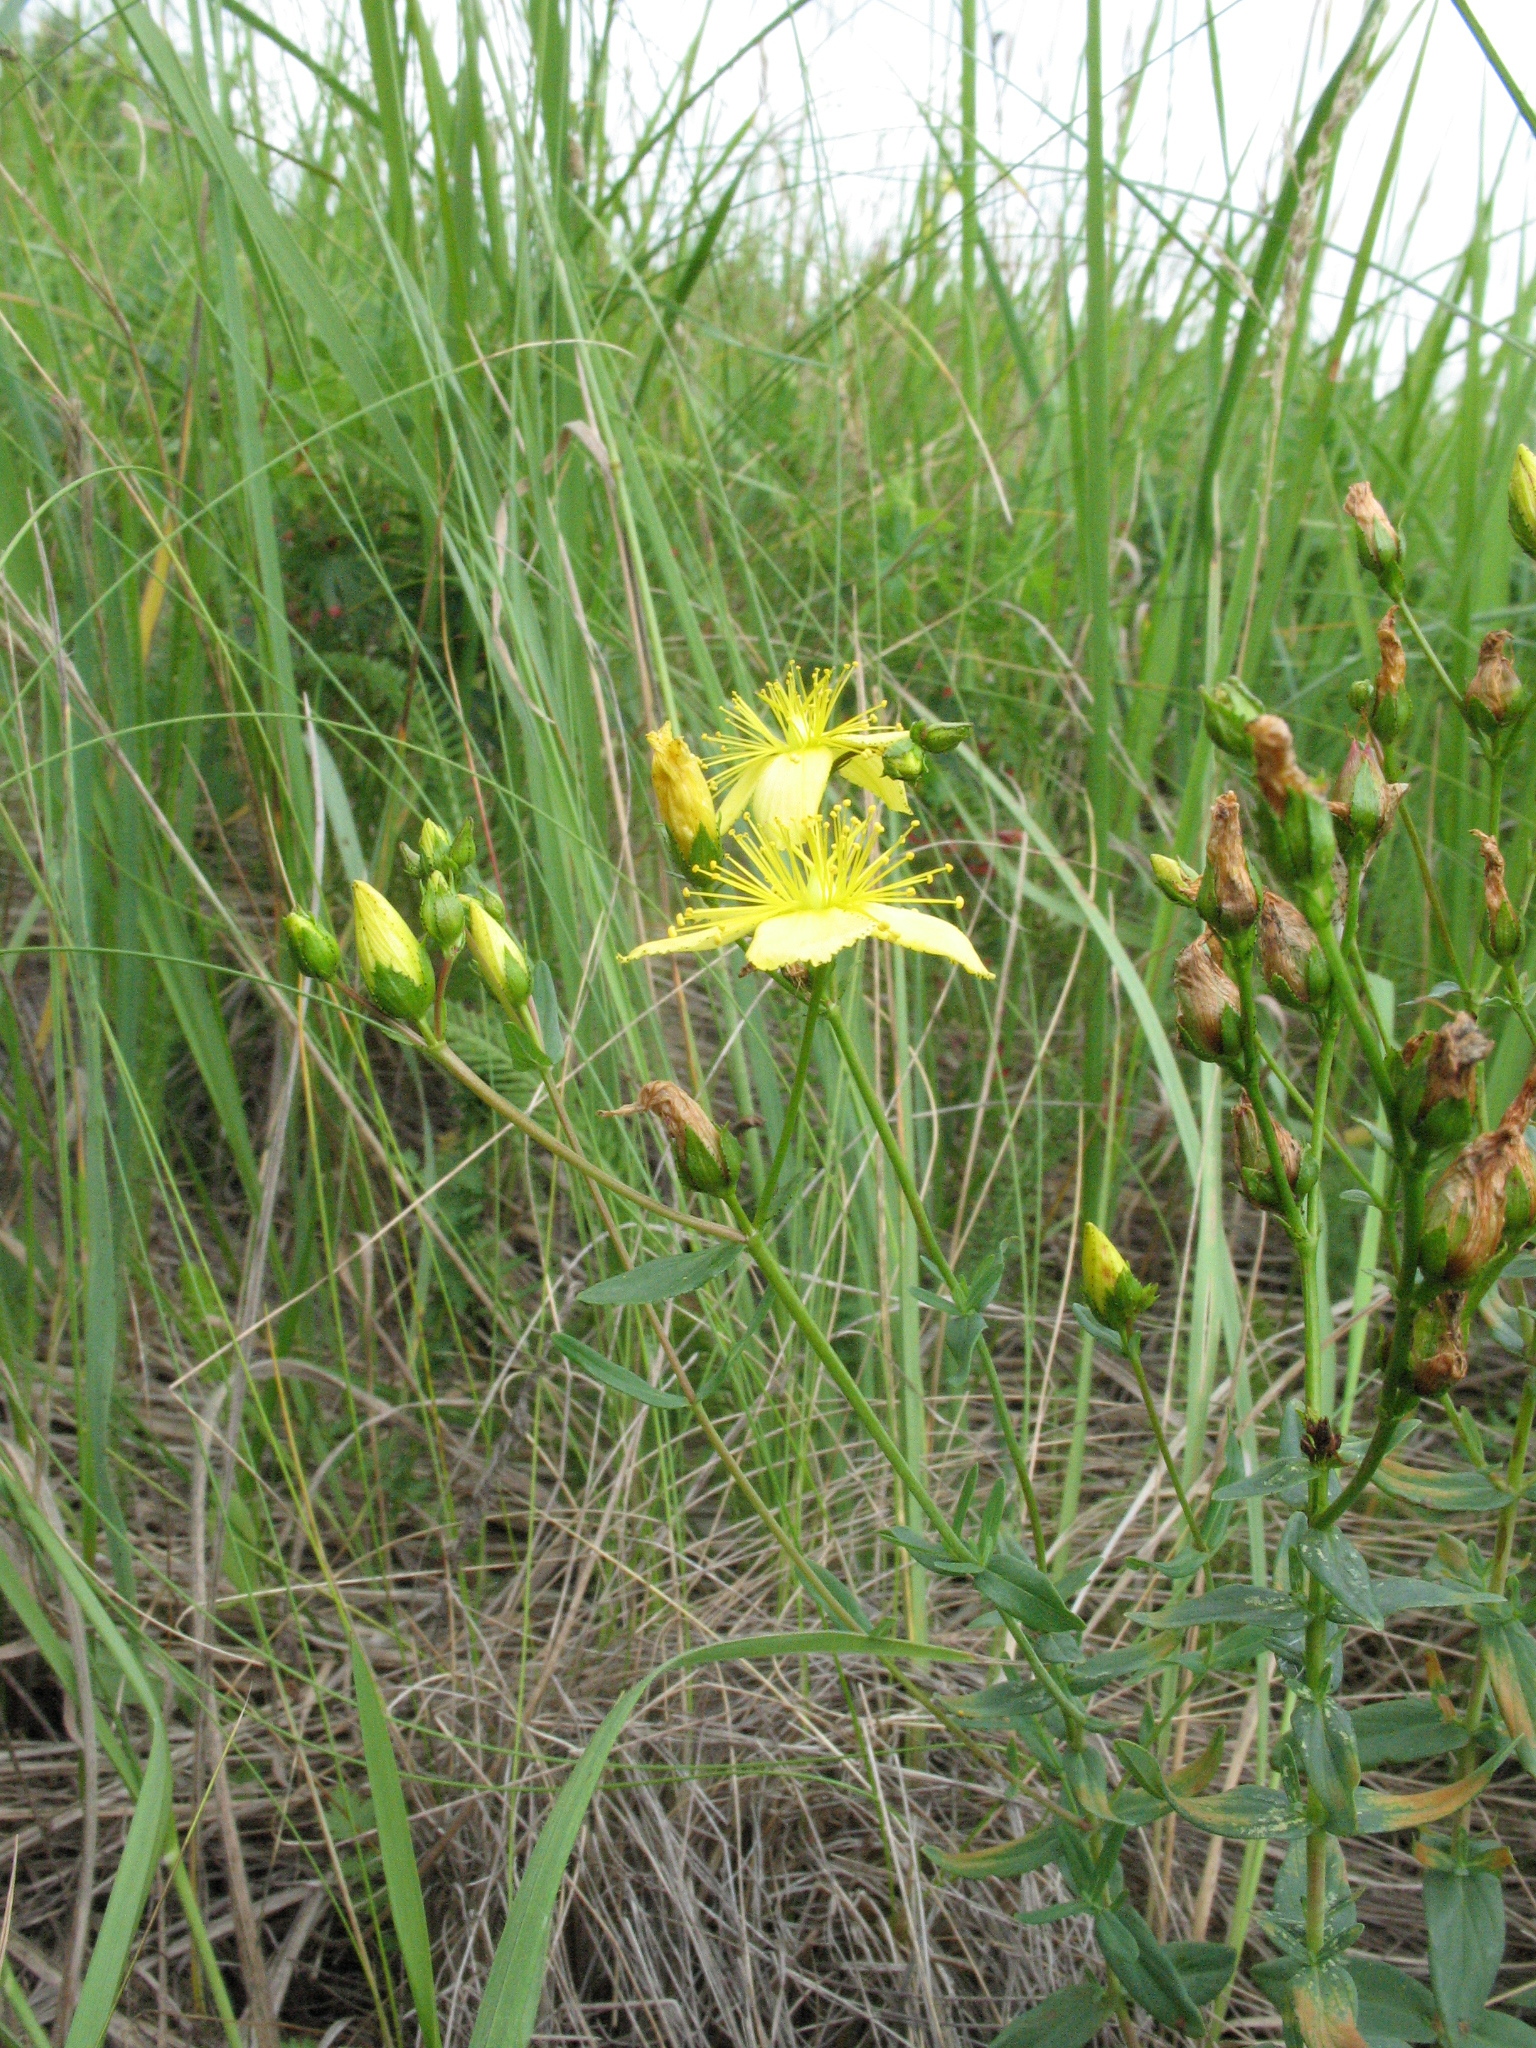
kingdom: Plantae
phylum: Tracheophyta
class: Magnoliopsida
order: Malpighiales
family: Hypericaceae
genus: Hypericum
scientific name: Hypericum elegans
